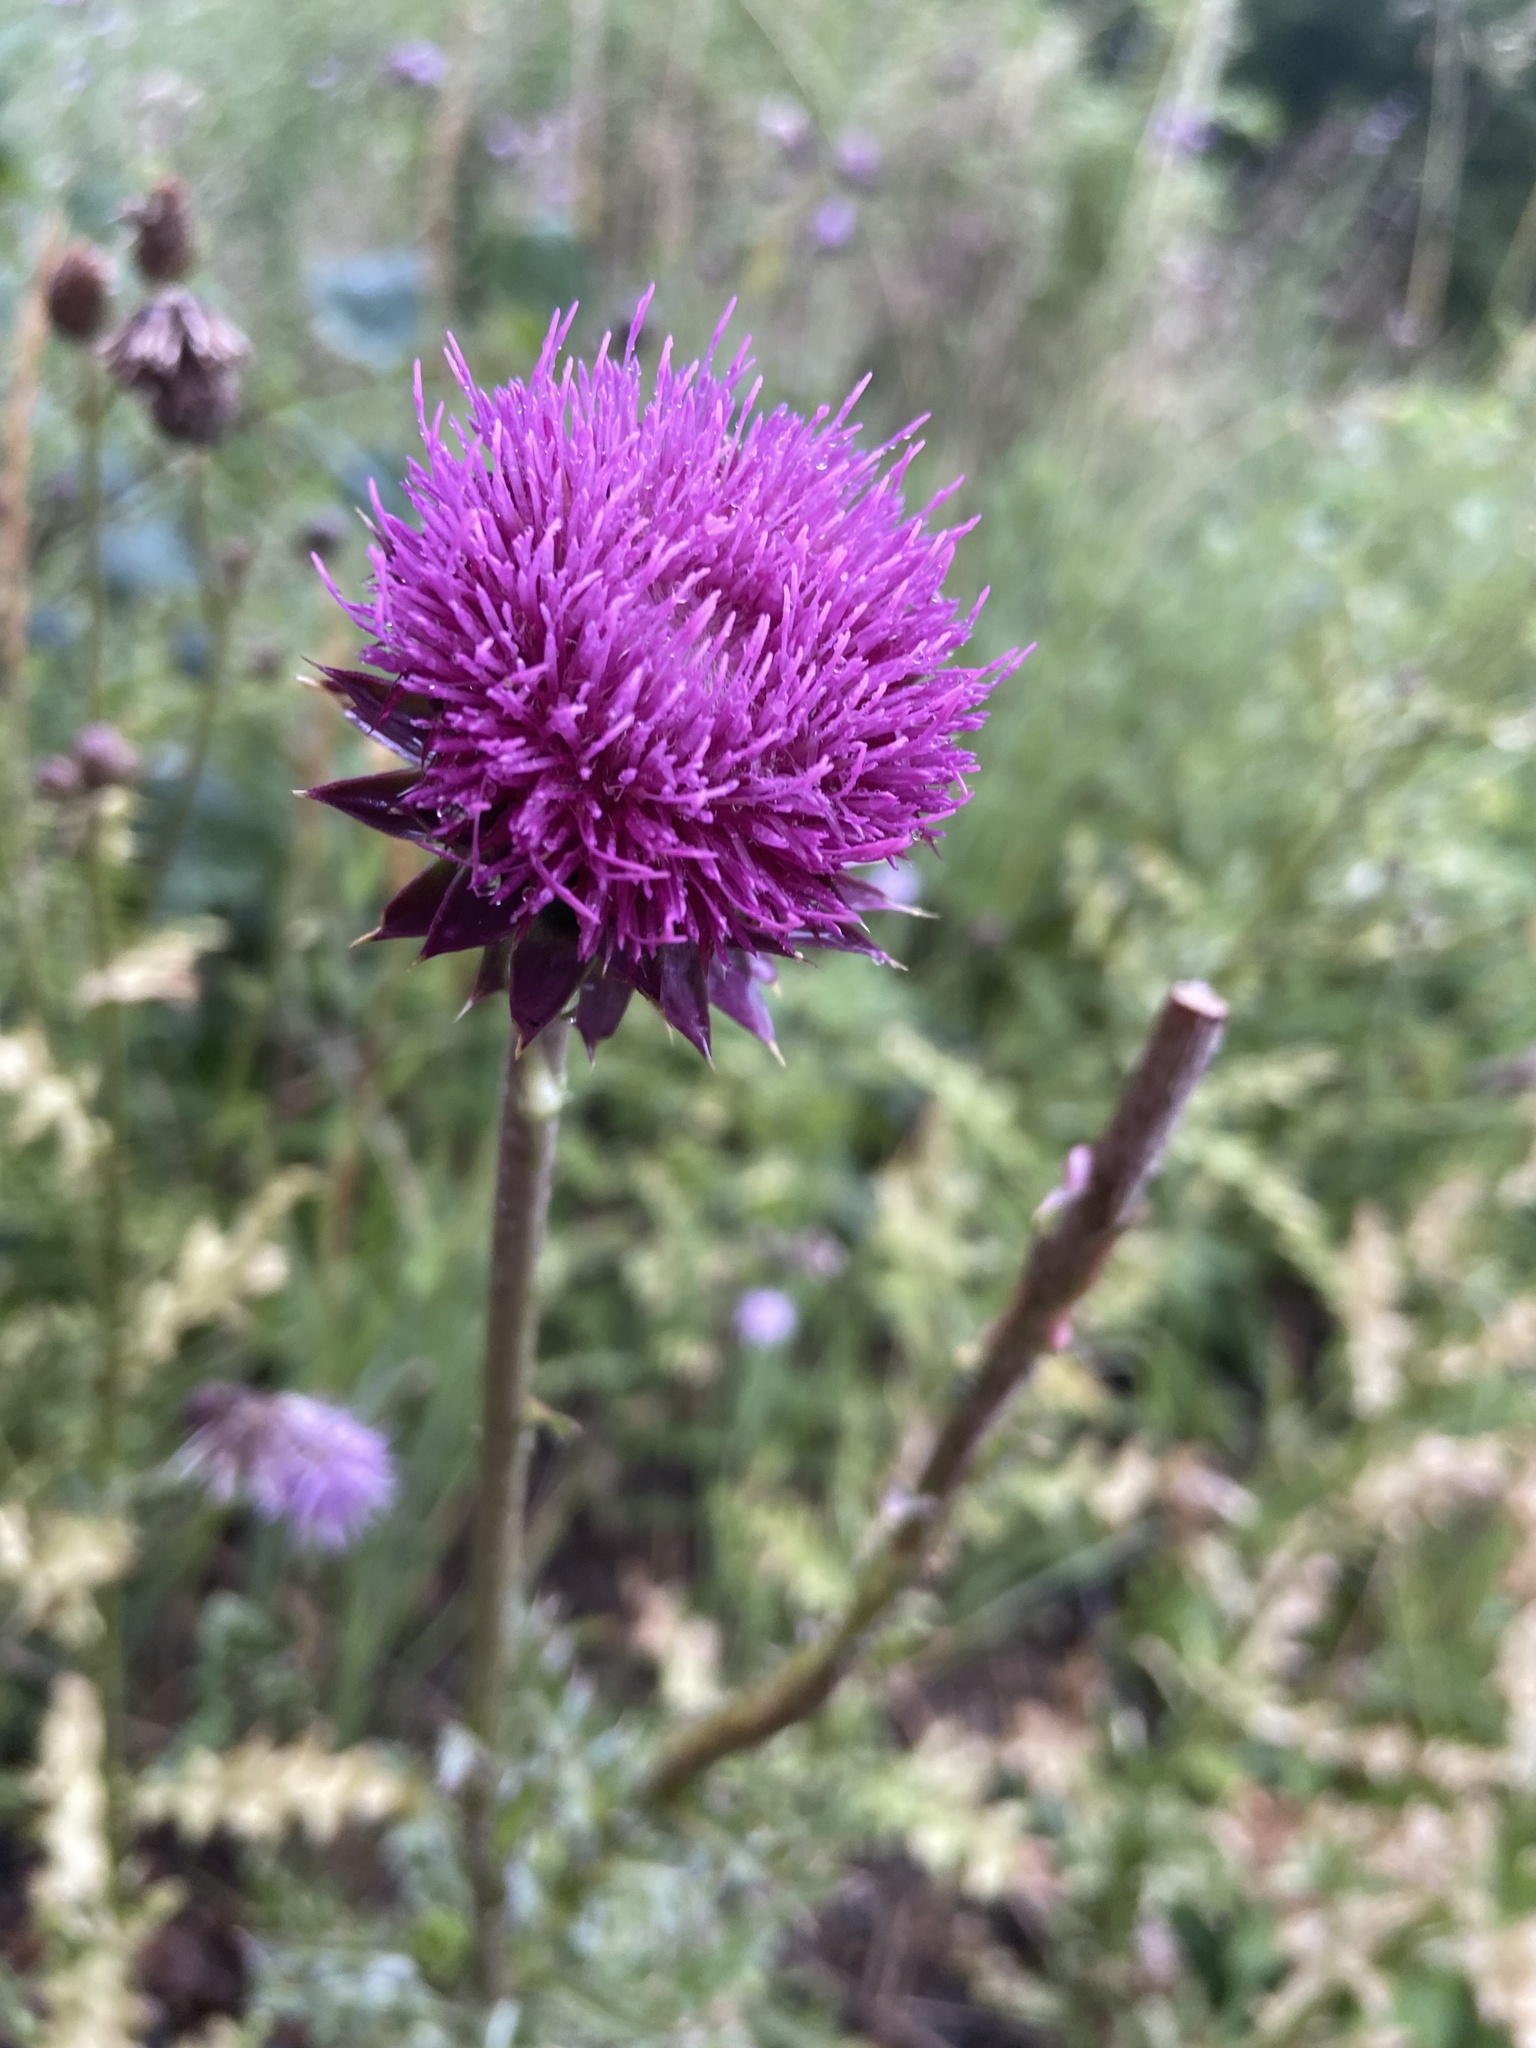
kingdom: Plantae
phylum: Tracheophyta
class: Magnoliopsida
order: Asterales
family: Asteraceae
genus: Carduus
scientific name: Carduus nutans
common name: Musk thistle
